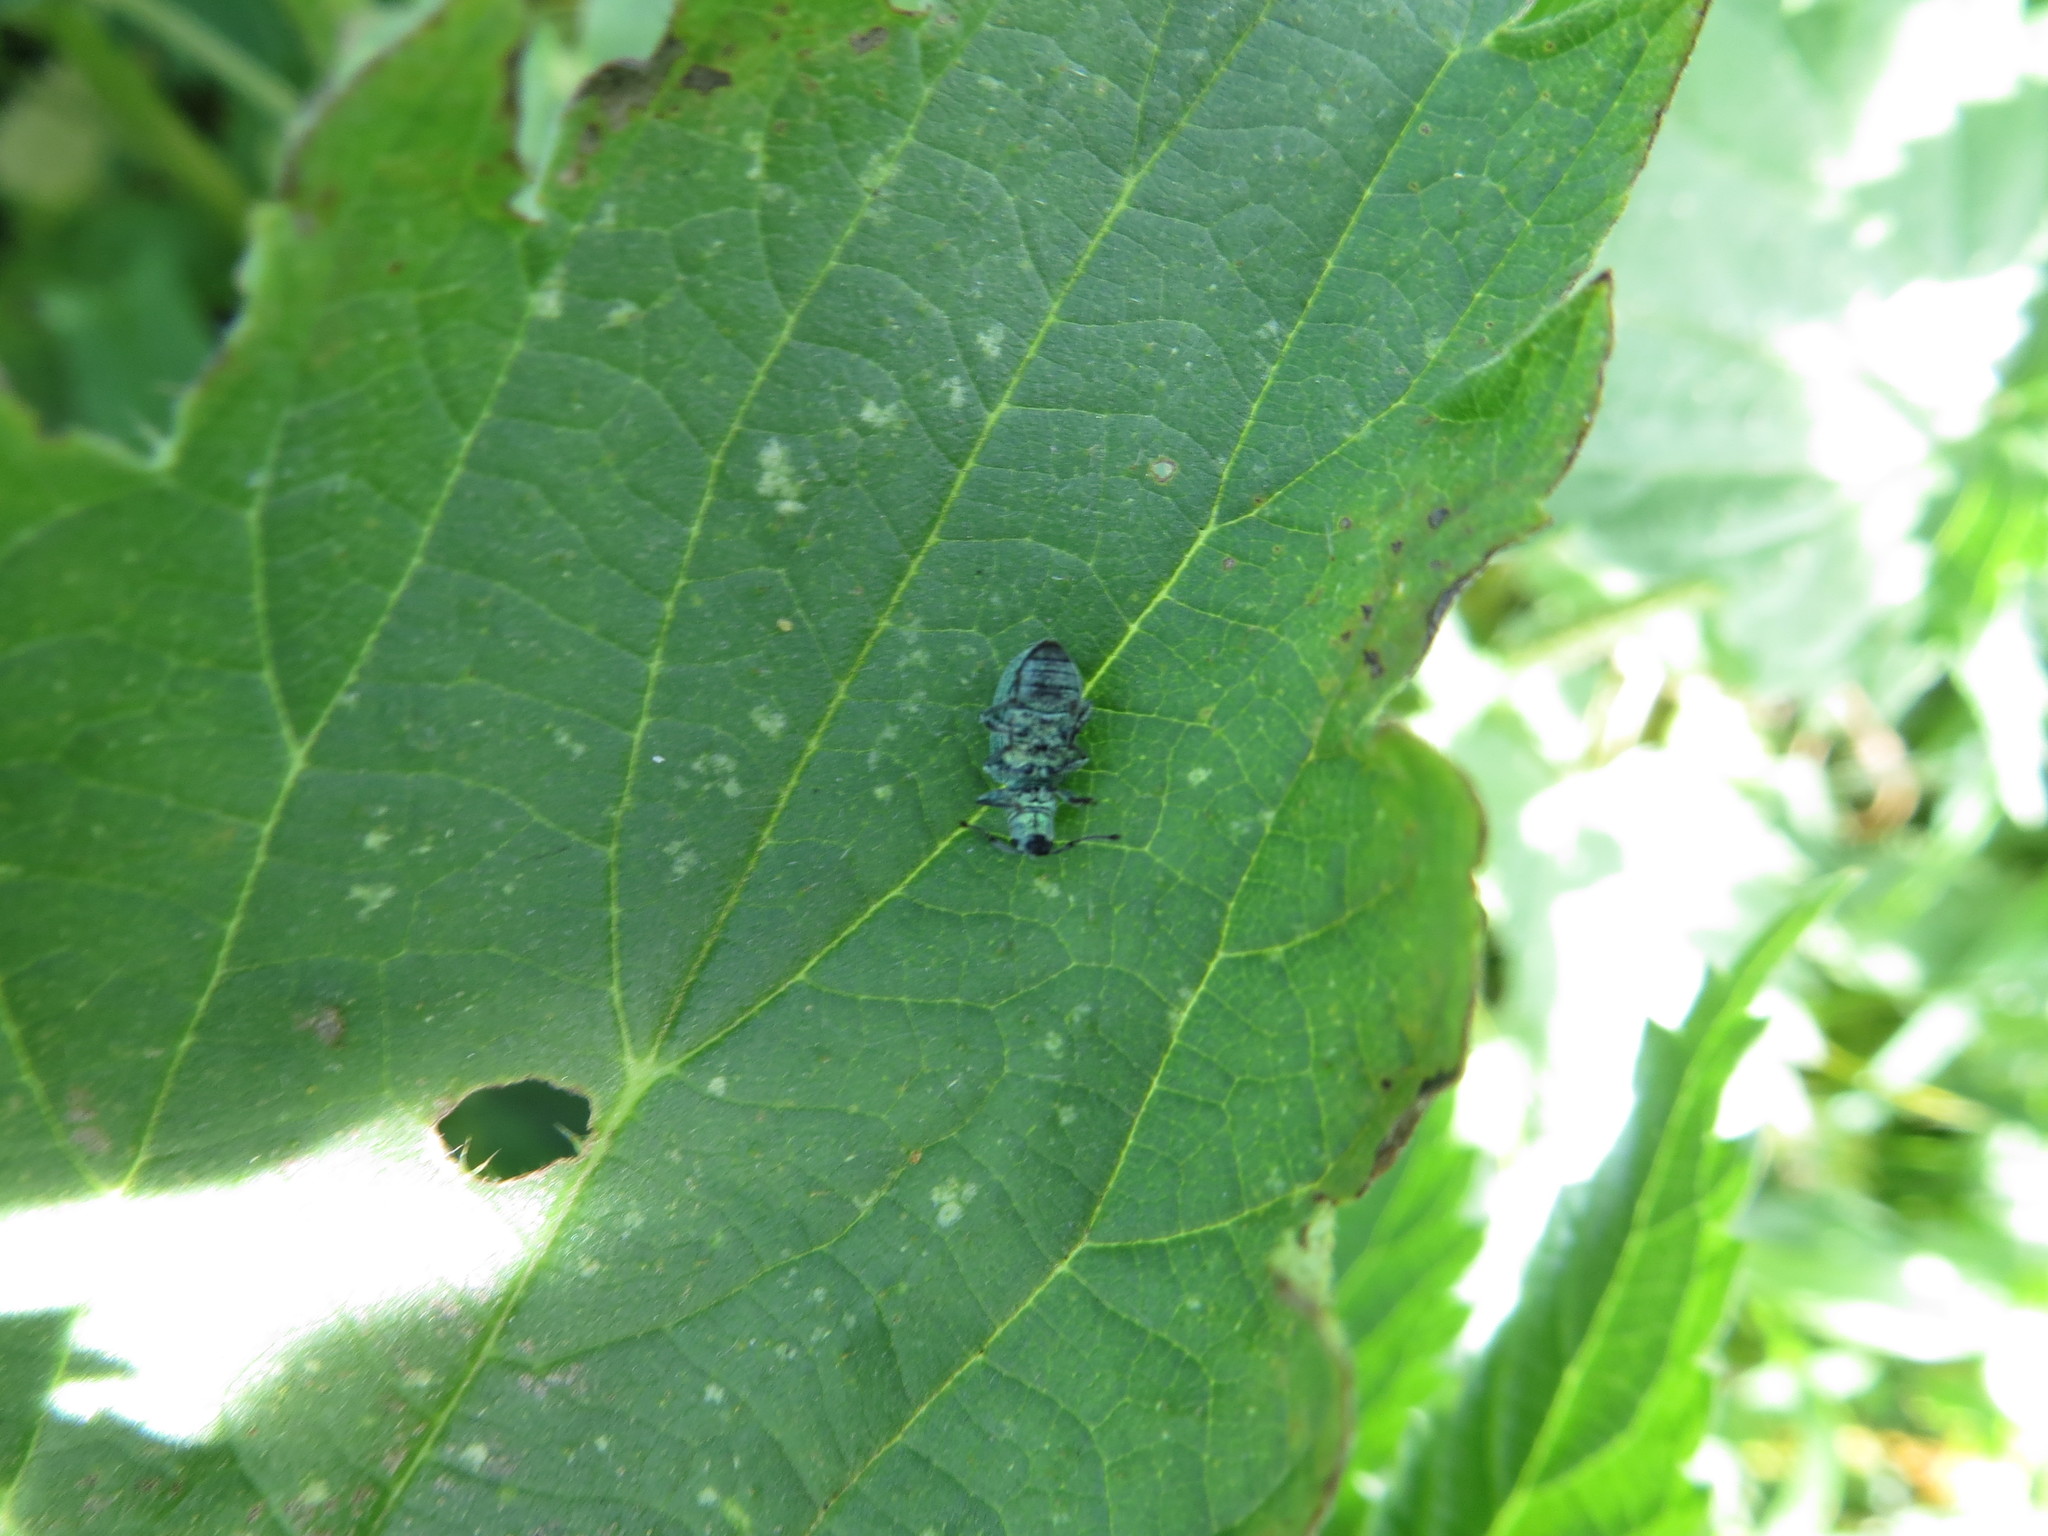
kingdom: Animalia
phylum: Arthropoda
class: Insecta
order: Coleoptera
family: Curculionidae
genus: Phyllobius
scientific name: Phyllobius thalassinus
